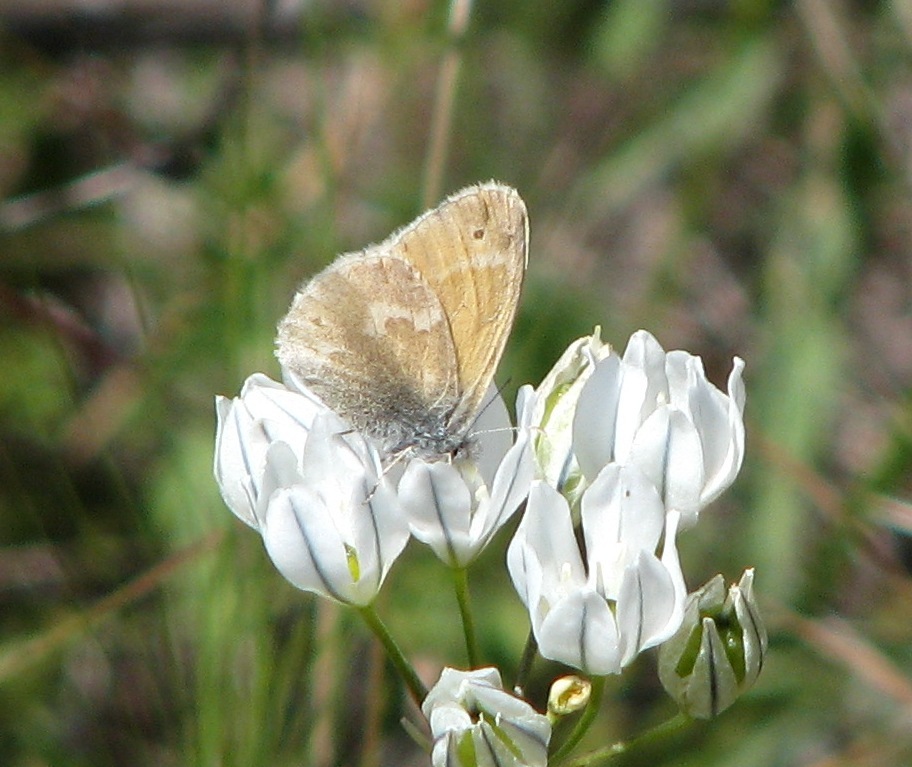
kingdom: Animalia
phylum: Arthropoda
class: Insecta
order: Lepidoptera
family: Nymphalidae
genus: Coenonympha
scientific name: Coenonympha california
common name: Common ringlet
